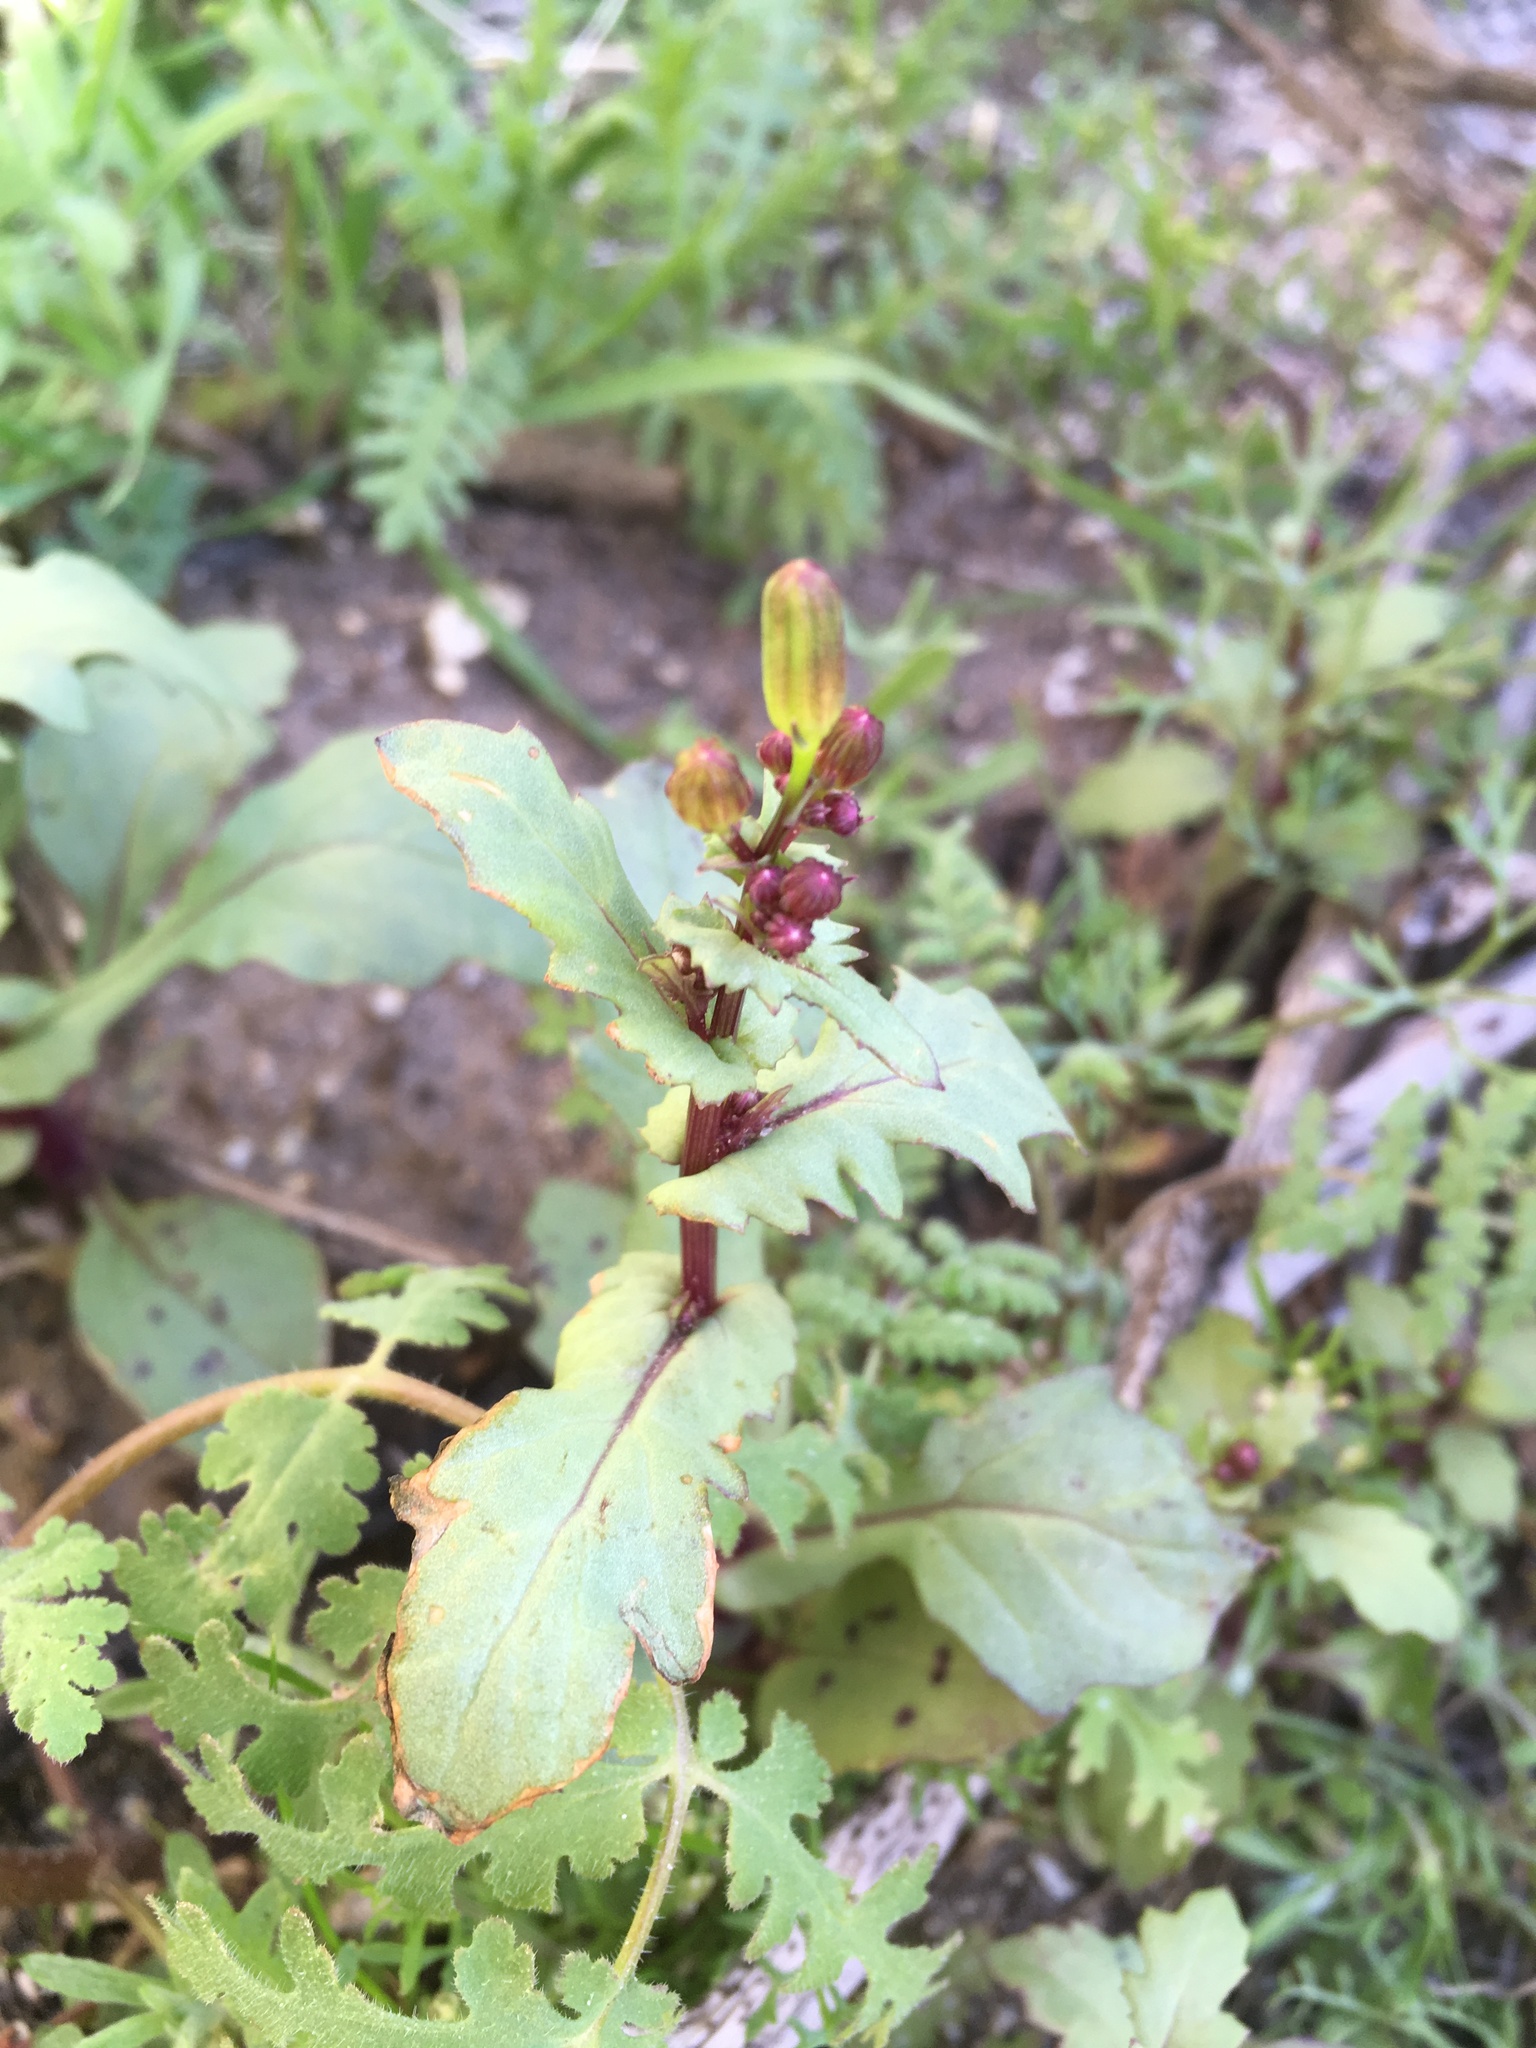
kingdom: Plantae
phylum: Tracheophyta
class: Magnoliopsida
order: Asterales
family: Asteraceae
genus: Senecio
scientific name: Senecio mohavensis
